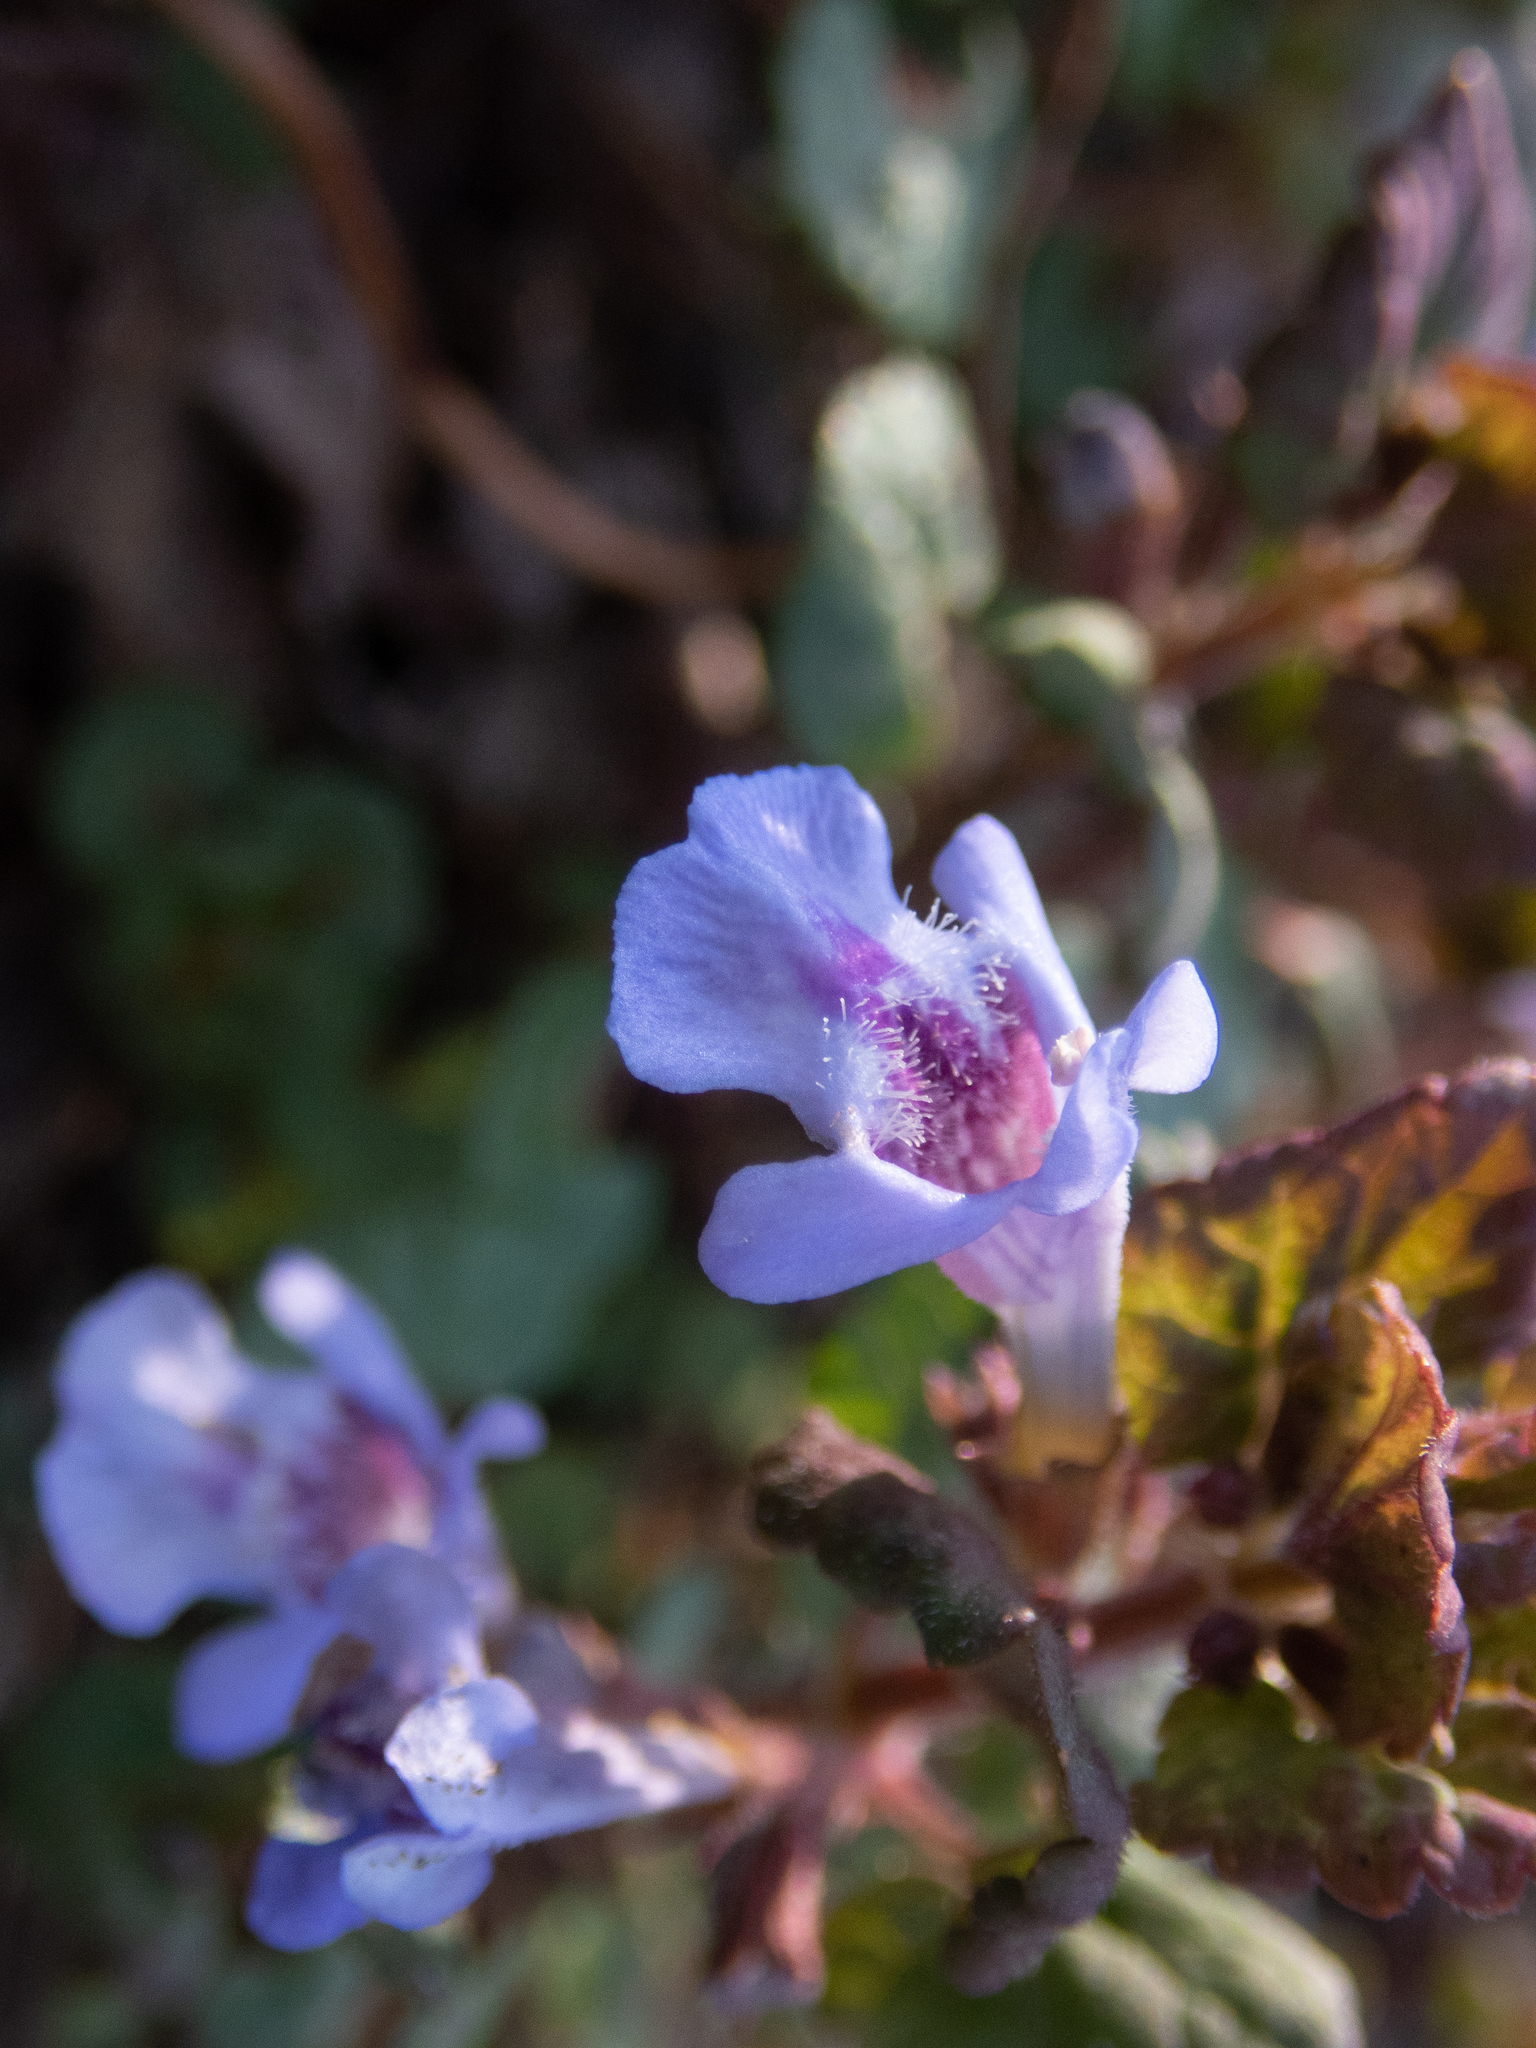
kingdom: Plantae
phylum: Tracheophyta
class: Magnoliopsida
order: Lamiales
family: Lamiaceae
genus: Glechoma
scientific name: Glechoma hederacea
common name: Ground ivy
